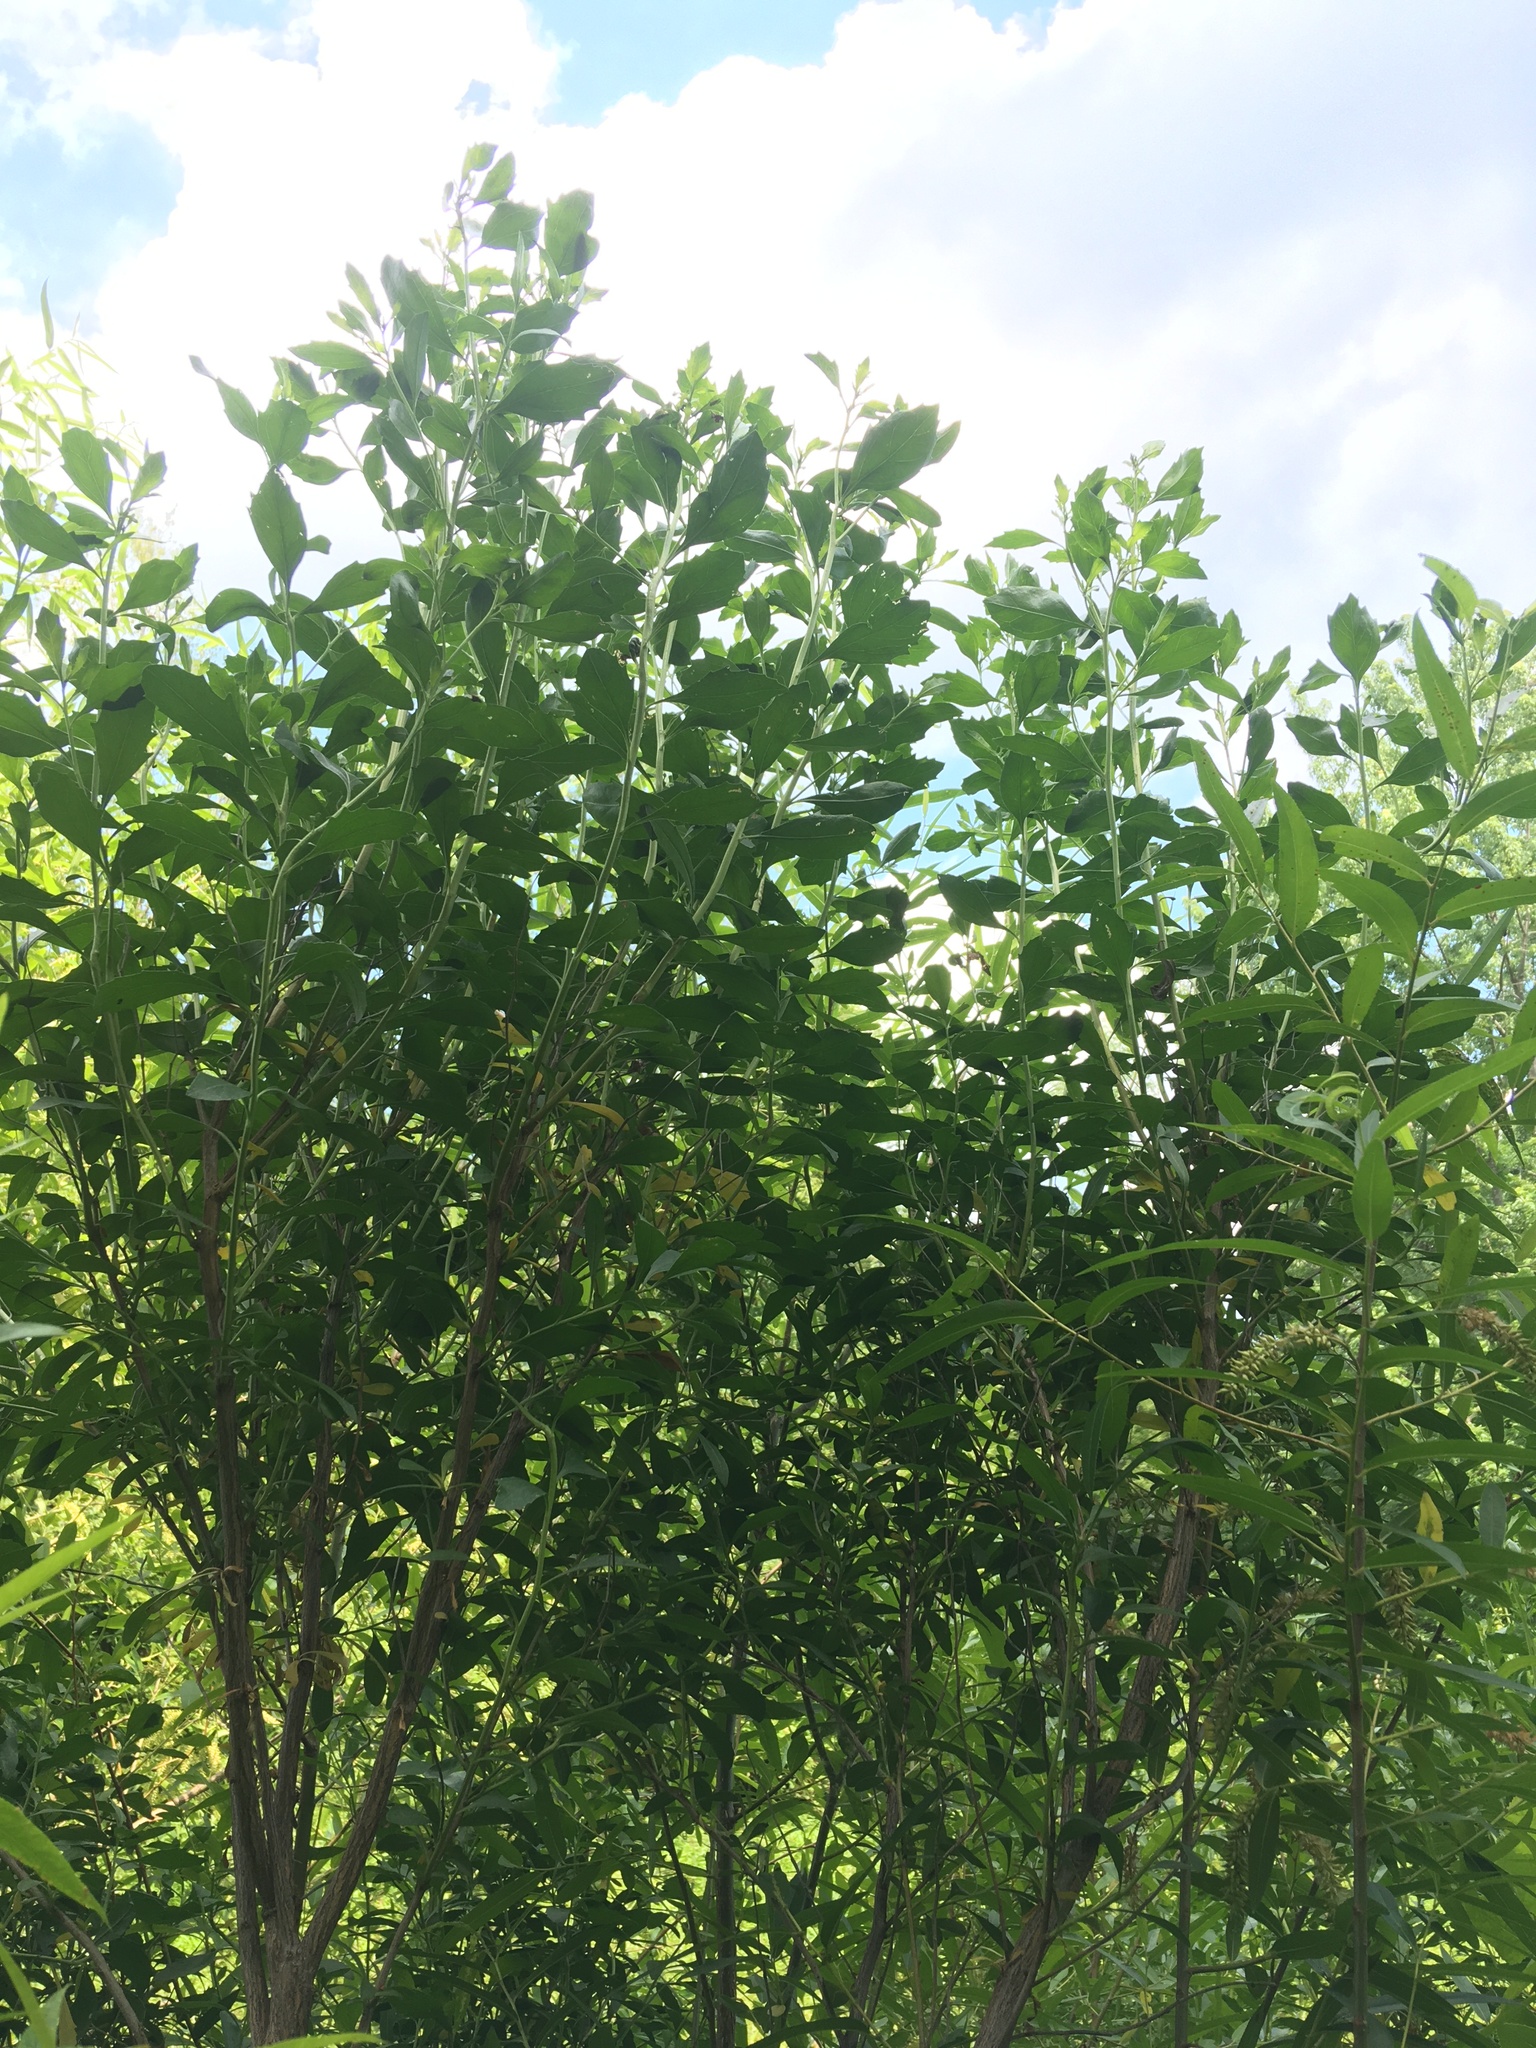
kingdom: Plantae
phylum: Tracheophyta
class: Magnoliopsida
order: Asterales
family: Asteraceae
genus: Baccharis
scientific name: Baccharis halimifolia
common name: Eastern baccharis
